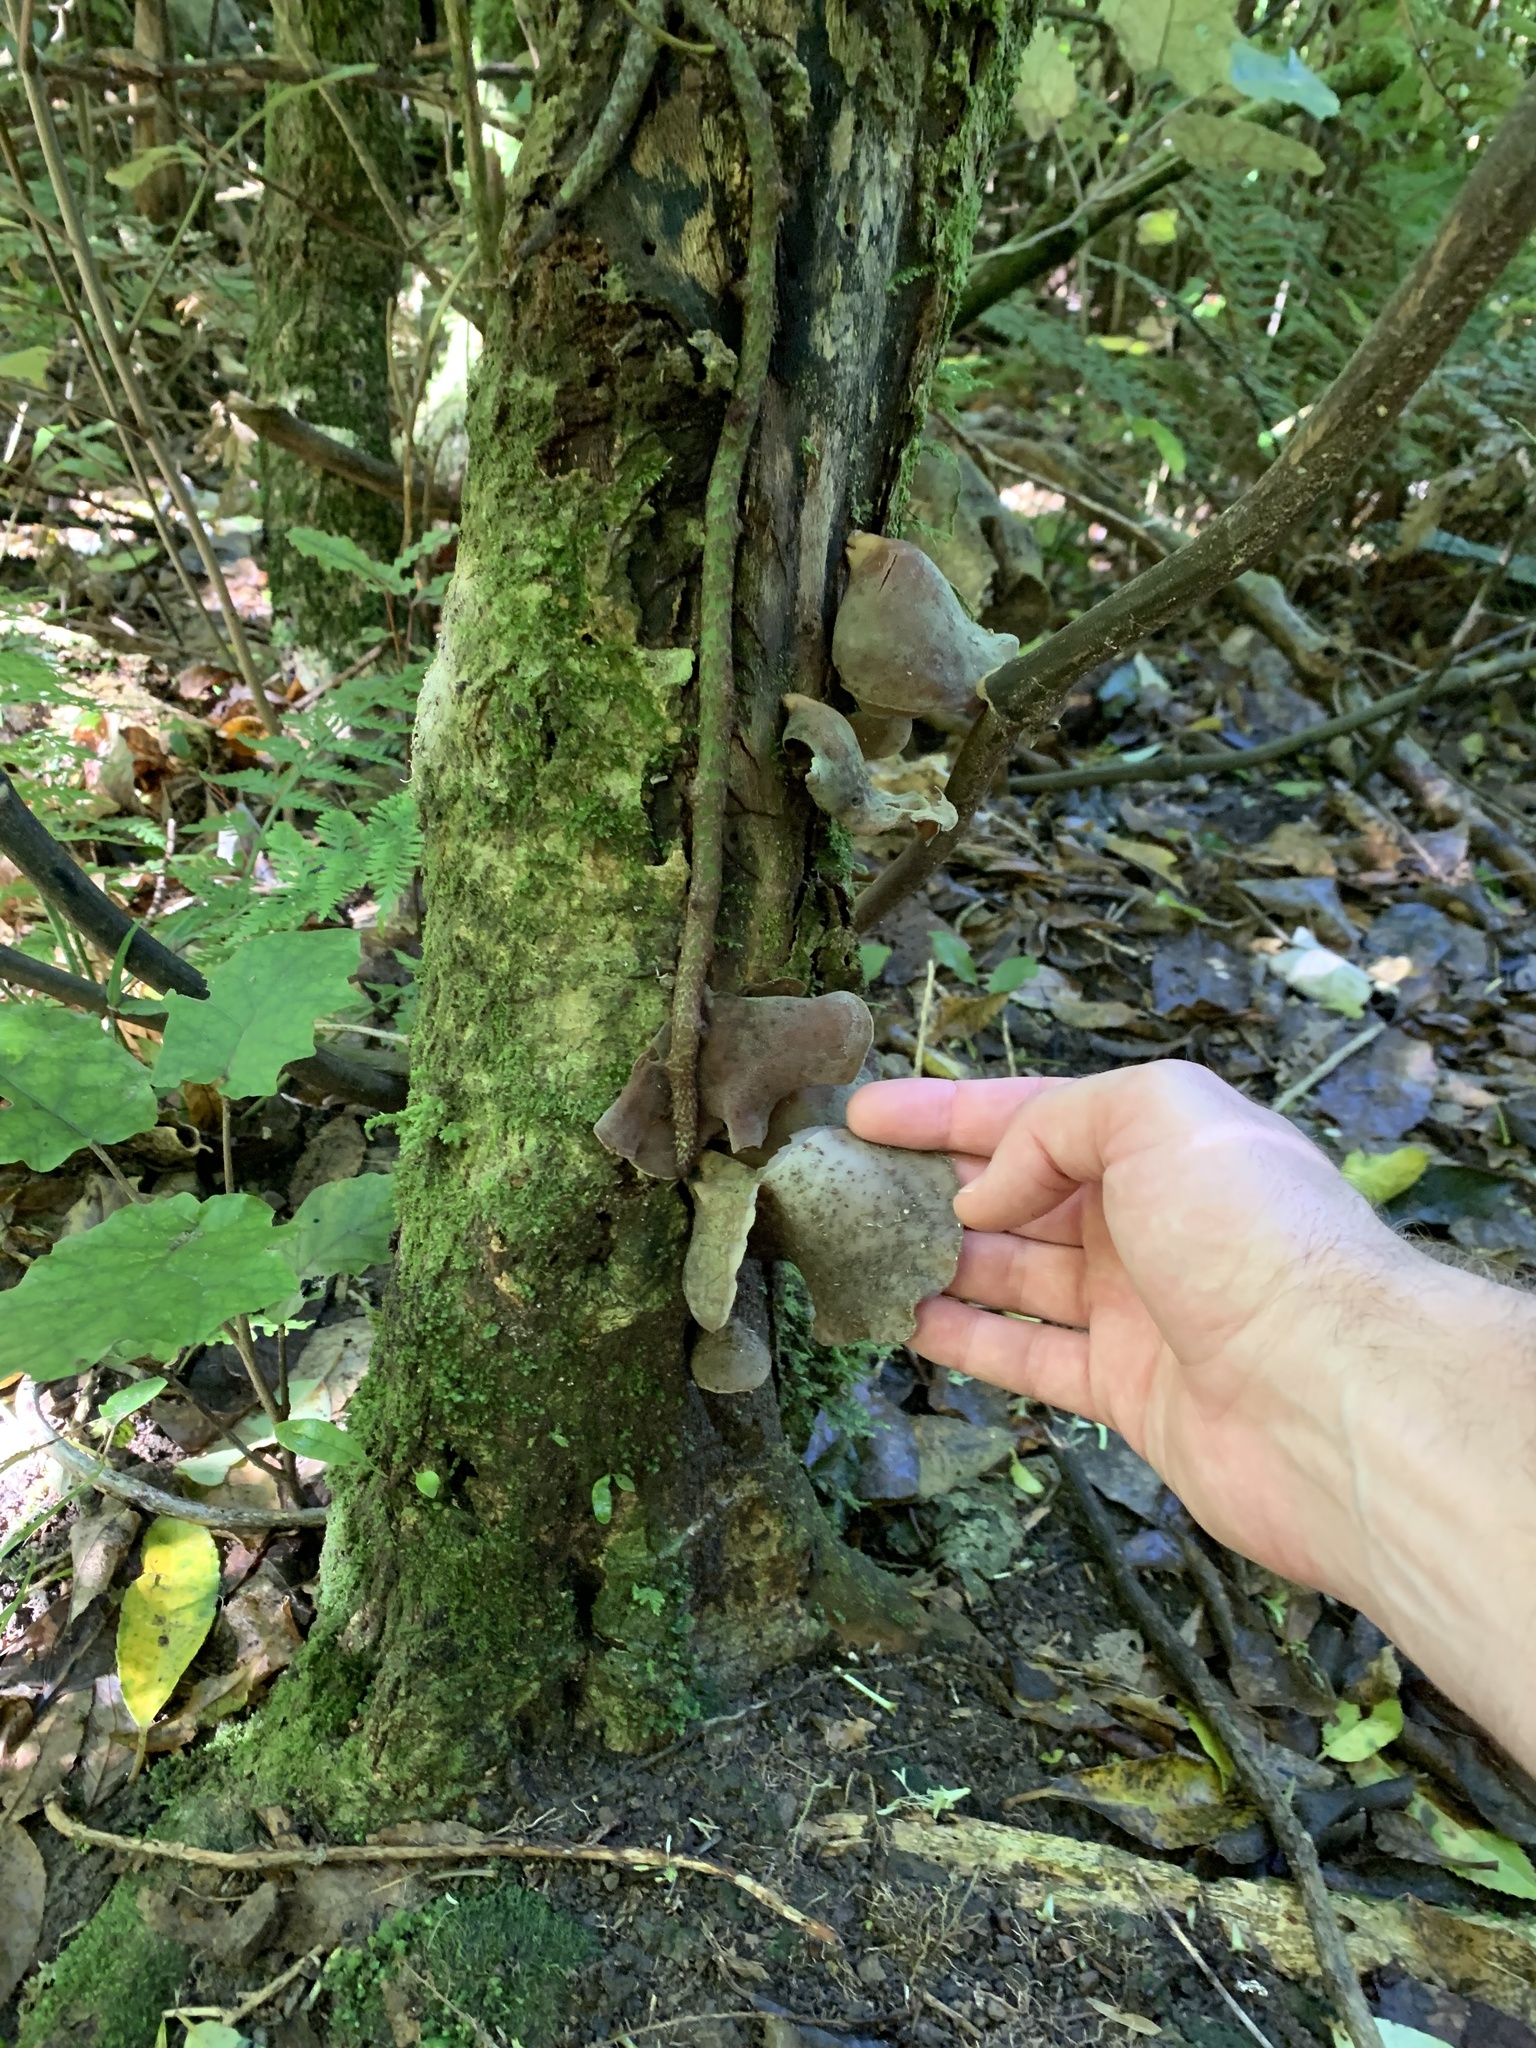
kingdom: Fungi
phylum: Basidiomycota
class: Agaricomycetes
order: Auriculariales
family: Auriculariaceae
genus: Auricularia
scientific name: Auricularia cornea
